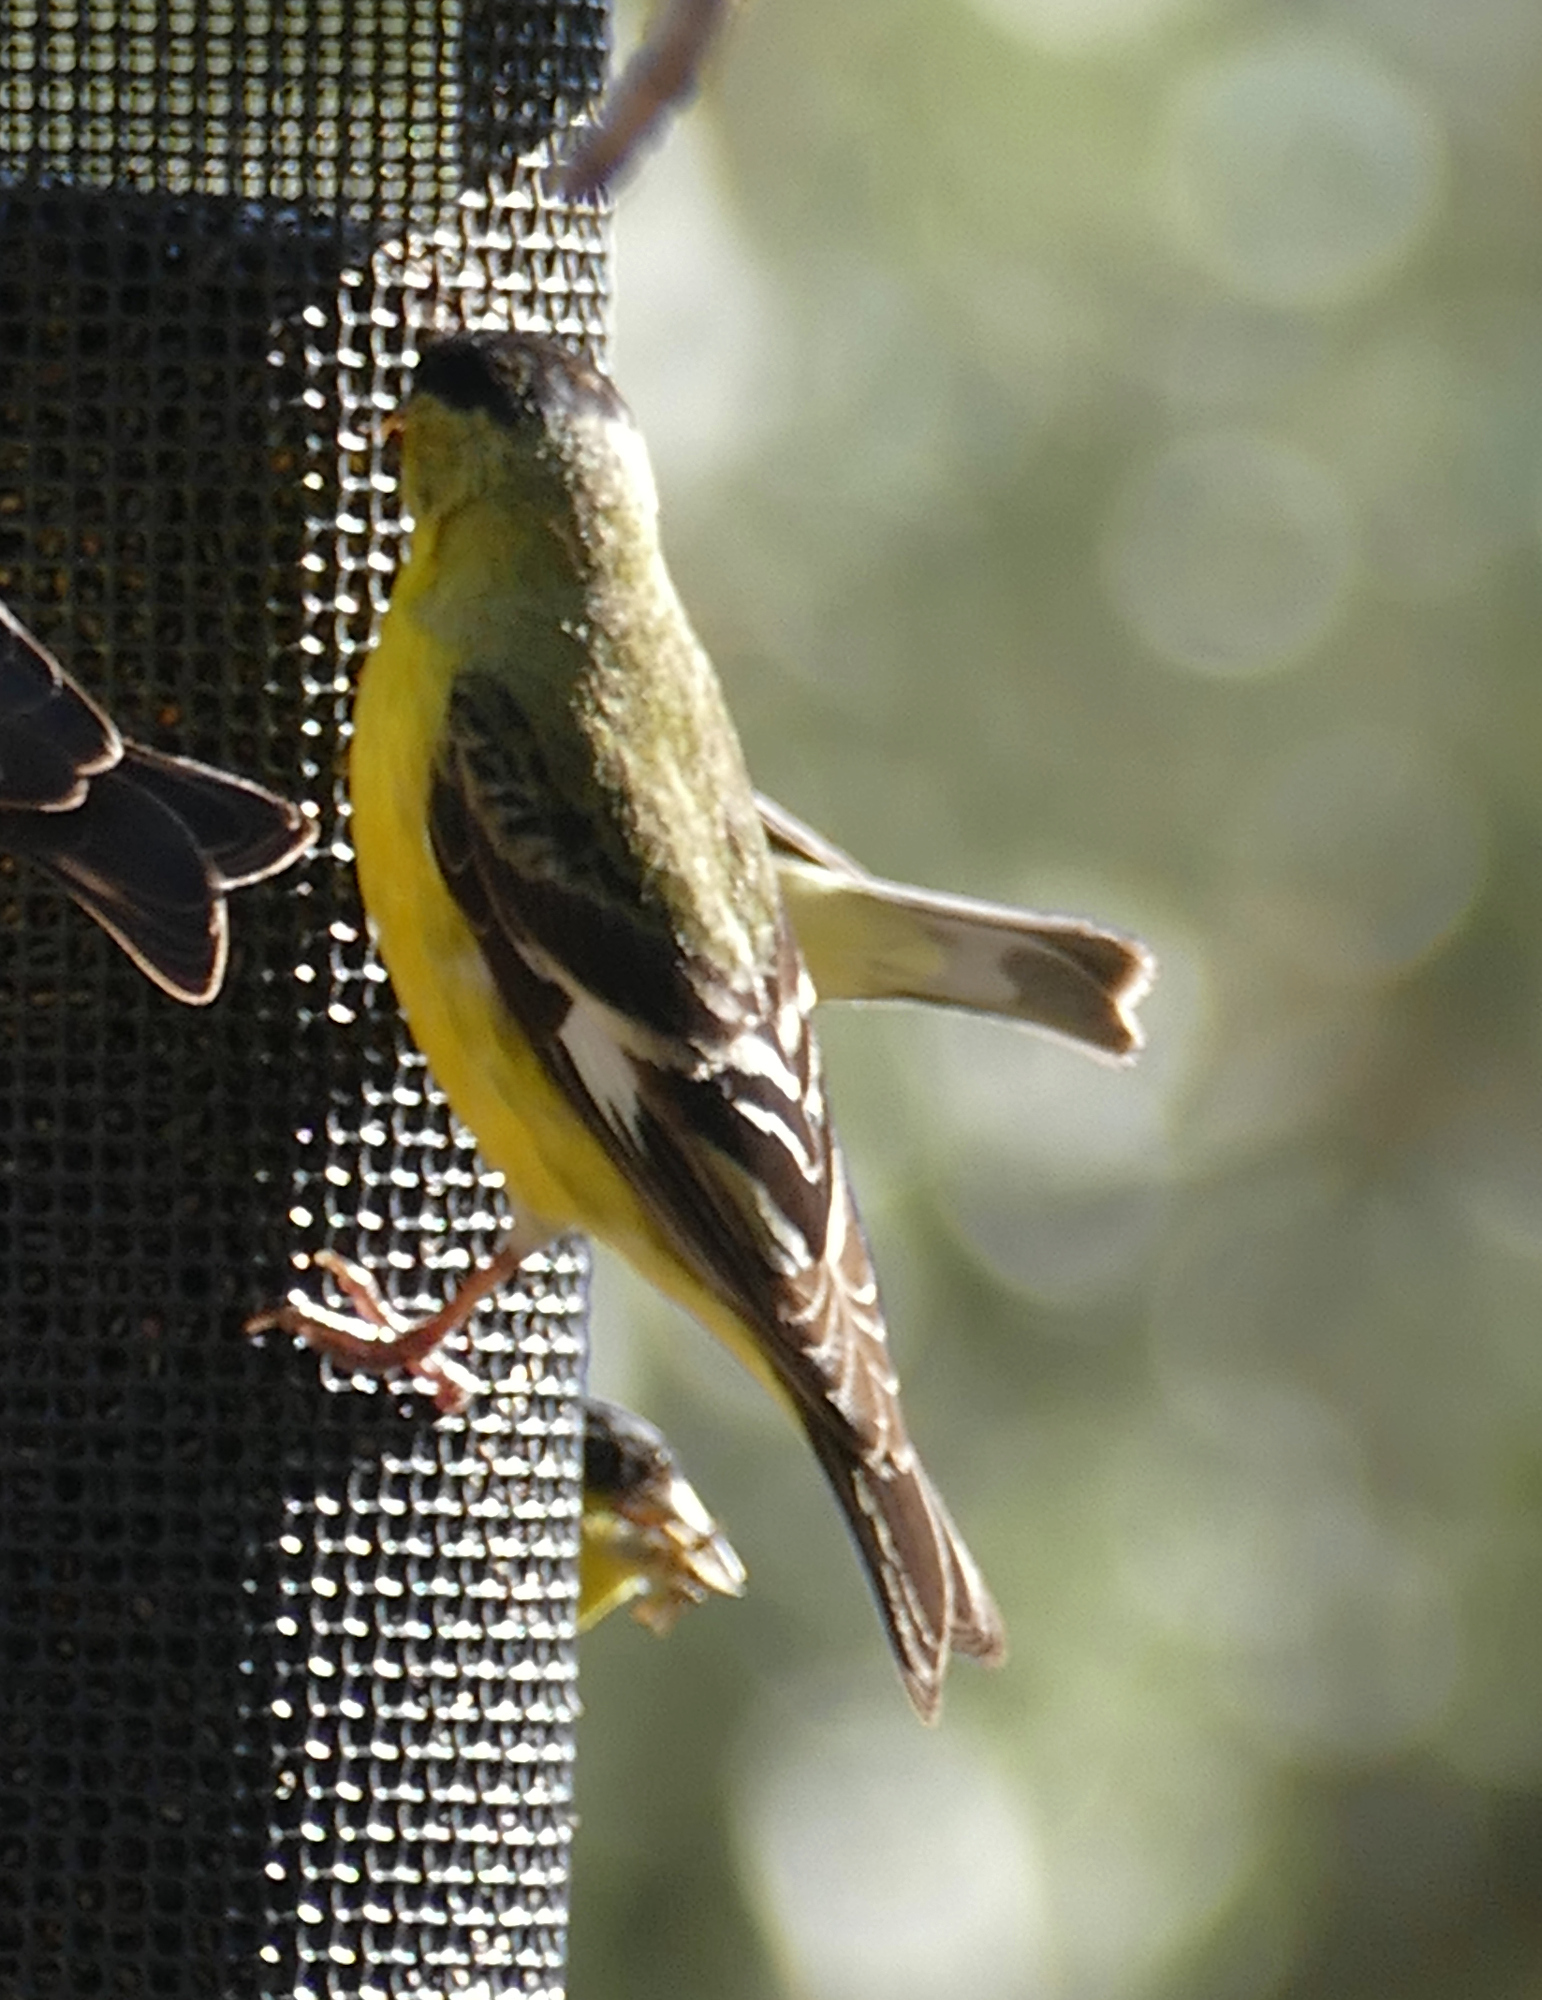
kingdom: Animalia
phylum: Chordata
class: Aves
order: Passeriformes
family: Fringillidae
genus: Spinus
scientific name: Spinus psaltria
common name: Lesser goldfinch
